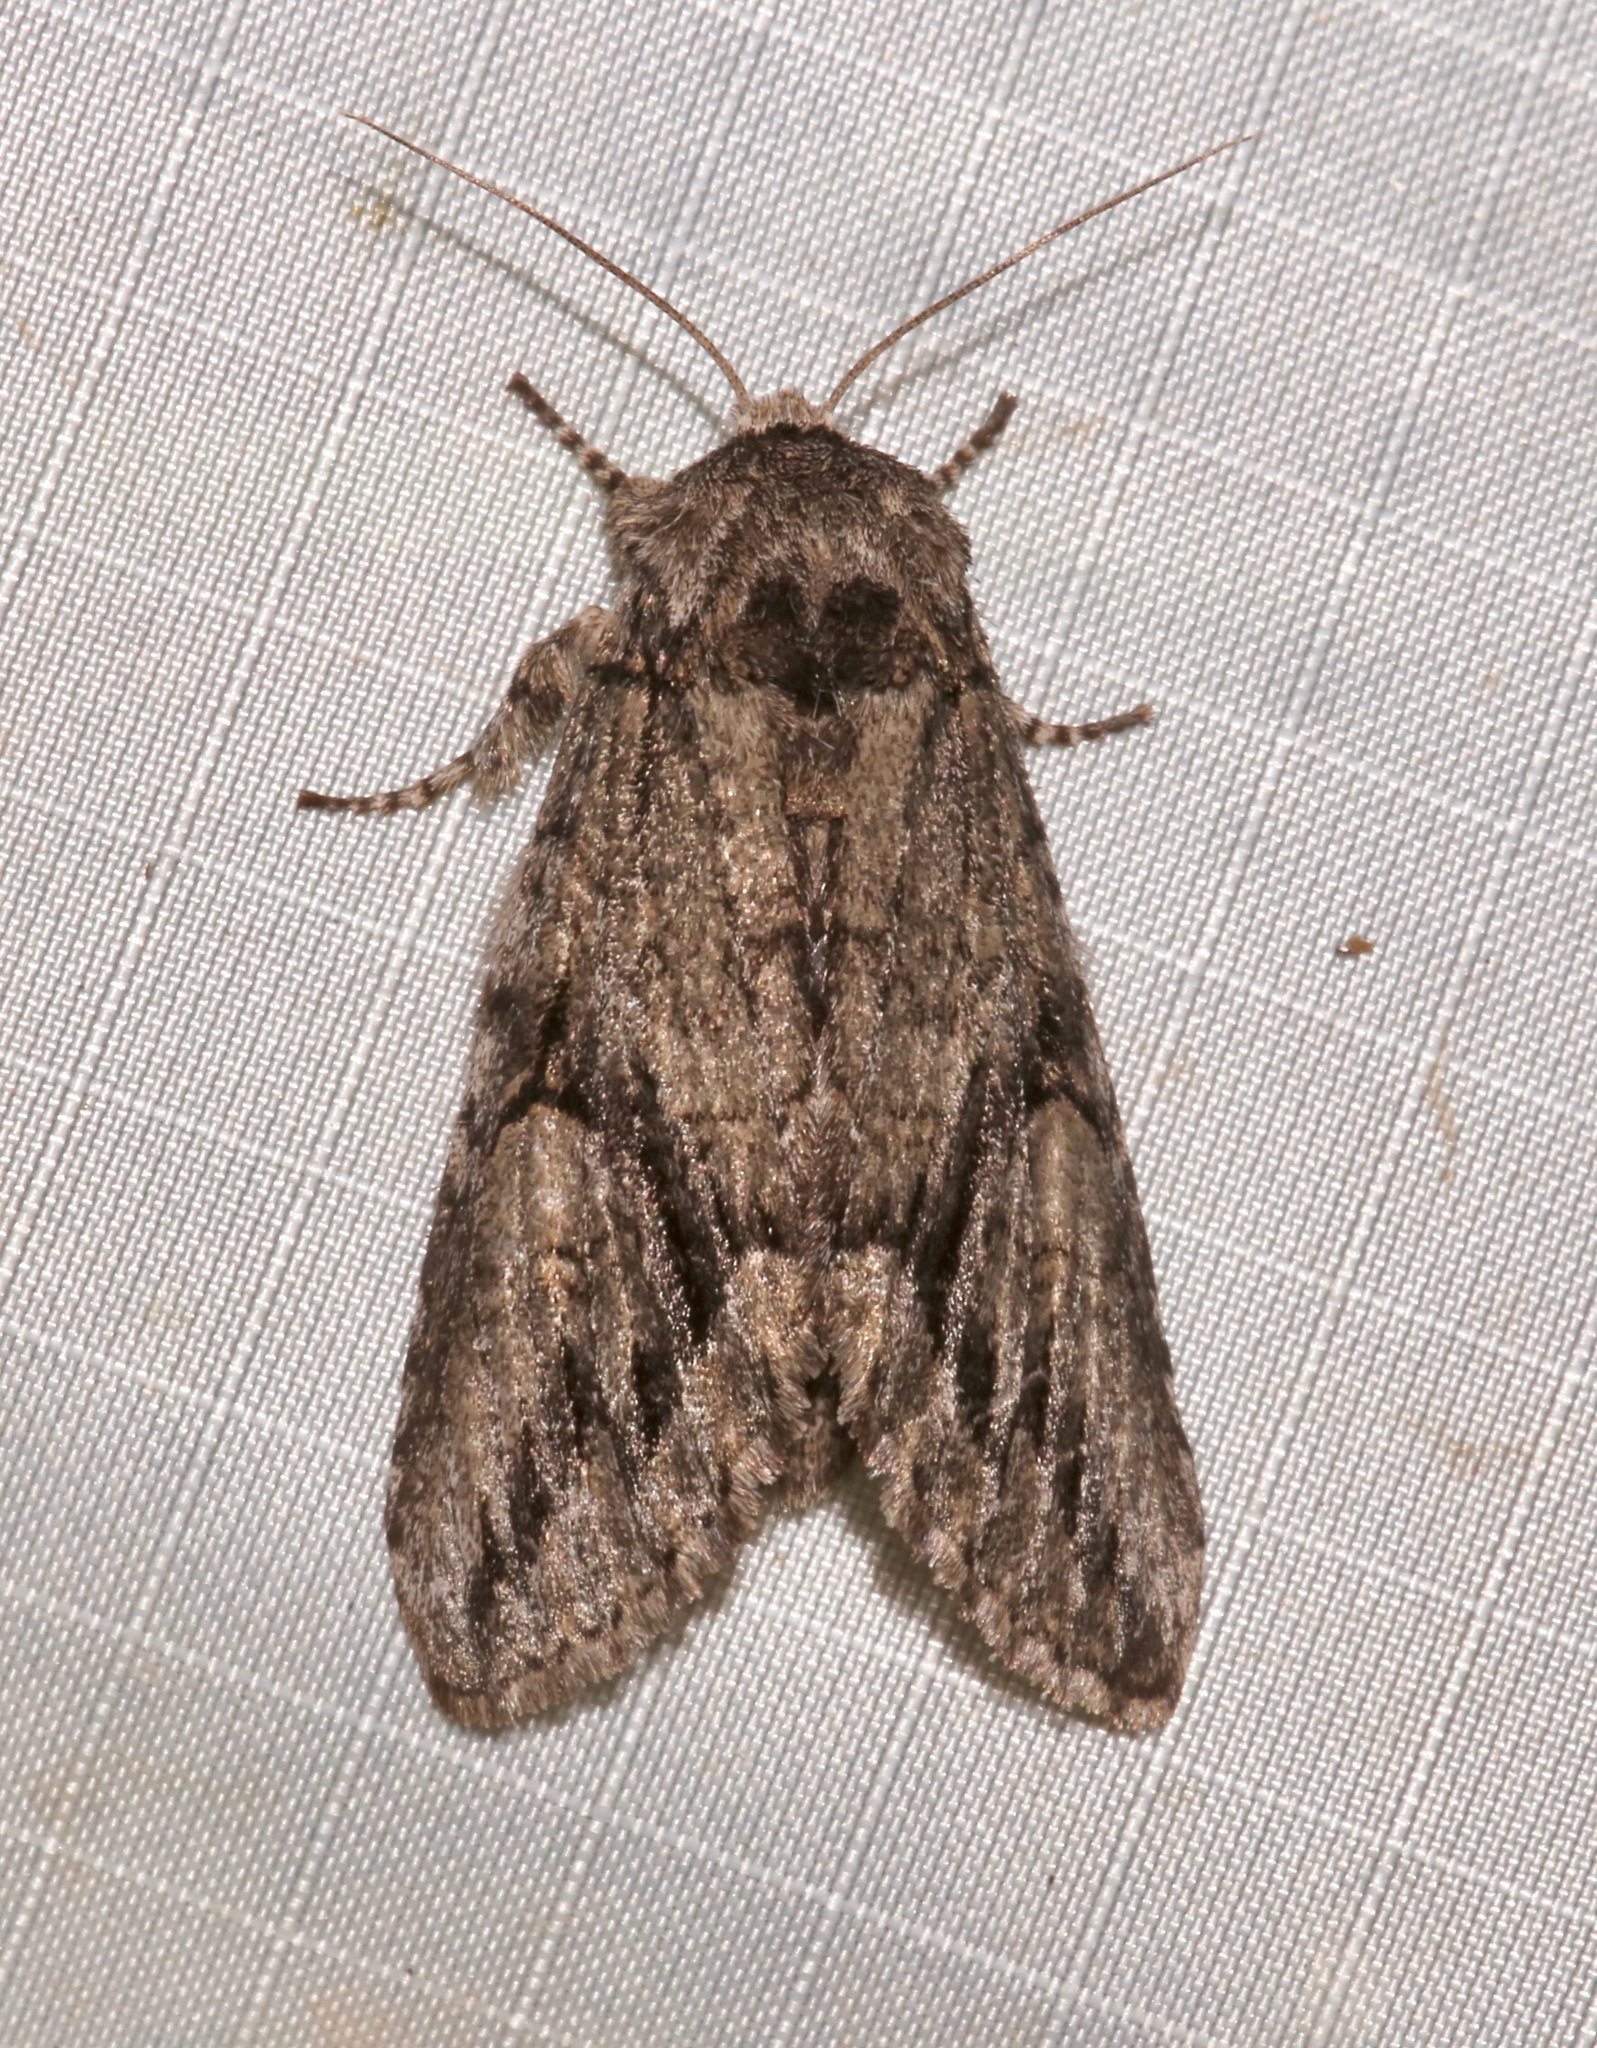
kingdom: Animalia
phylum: Arthropoda
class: Insecta
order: Lepidoptera
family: Notodontidae
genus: Heterocampa
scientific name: Heterocampa averna
